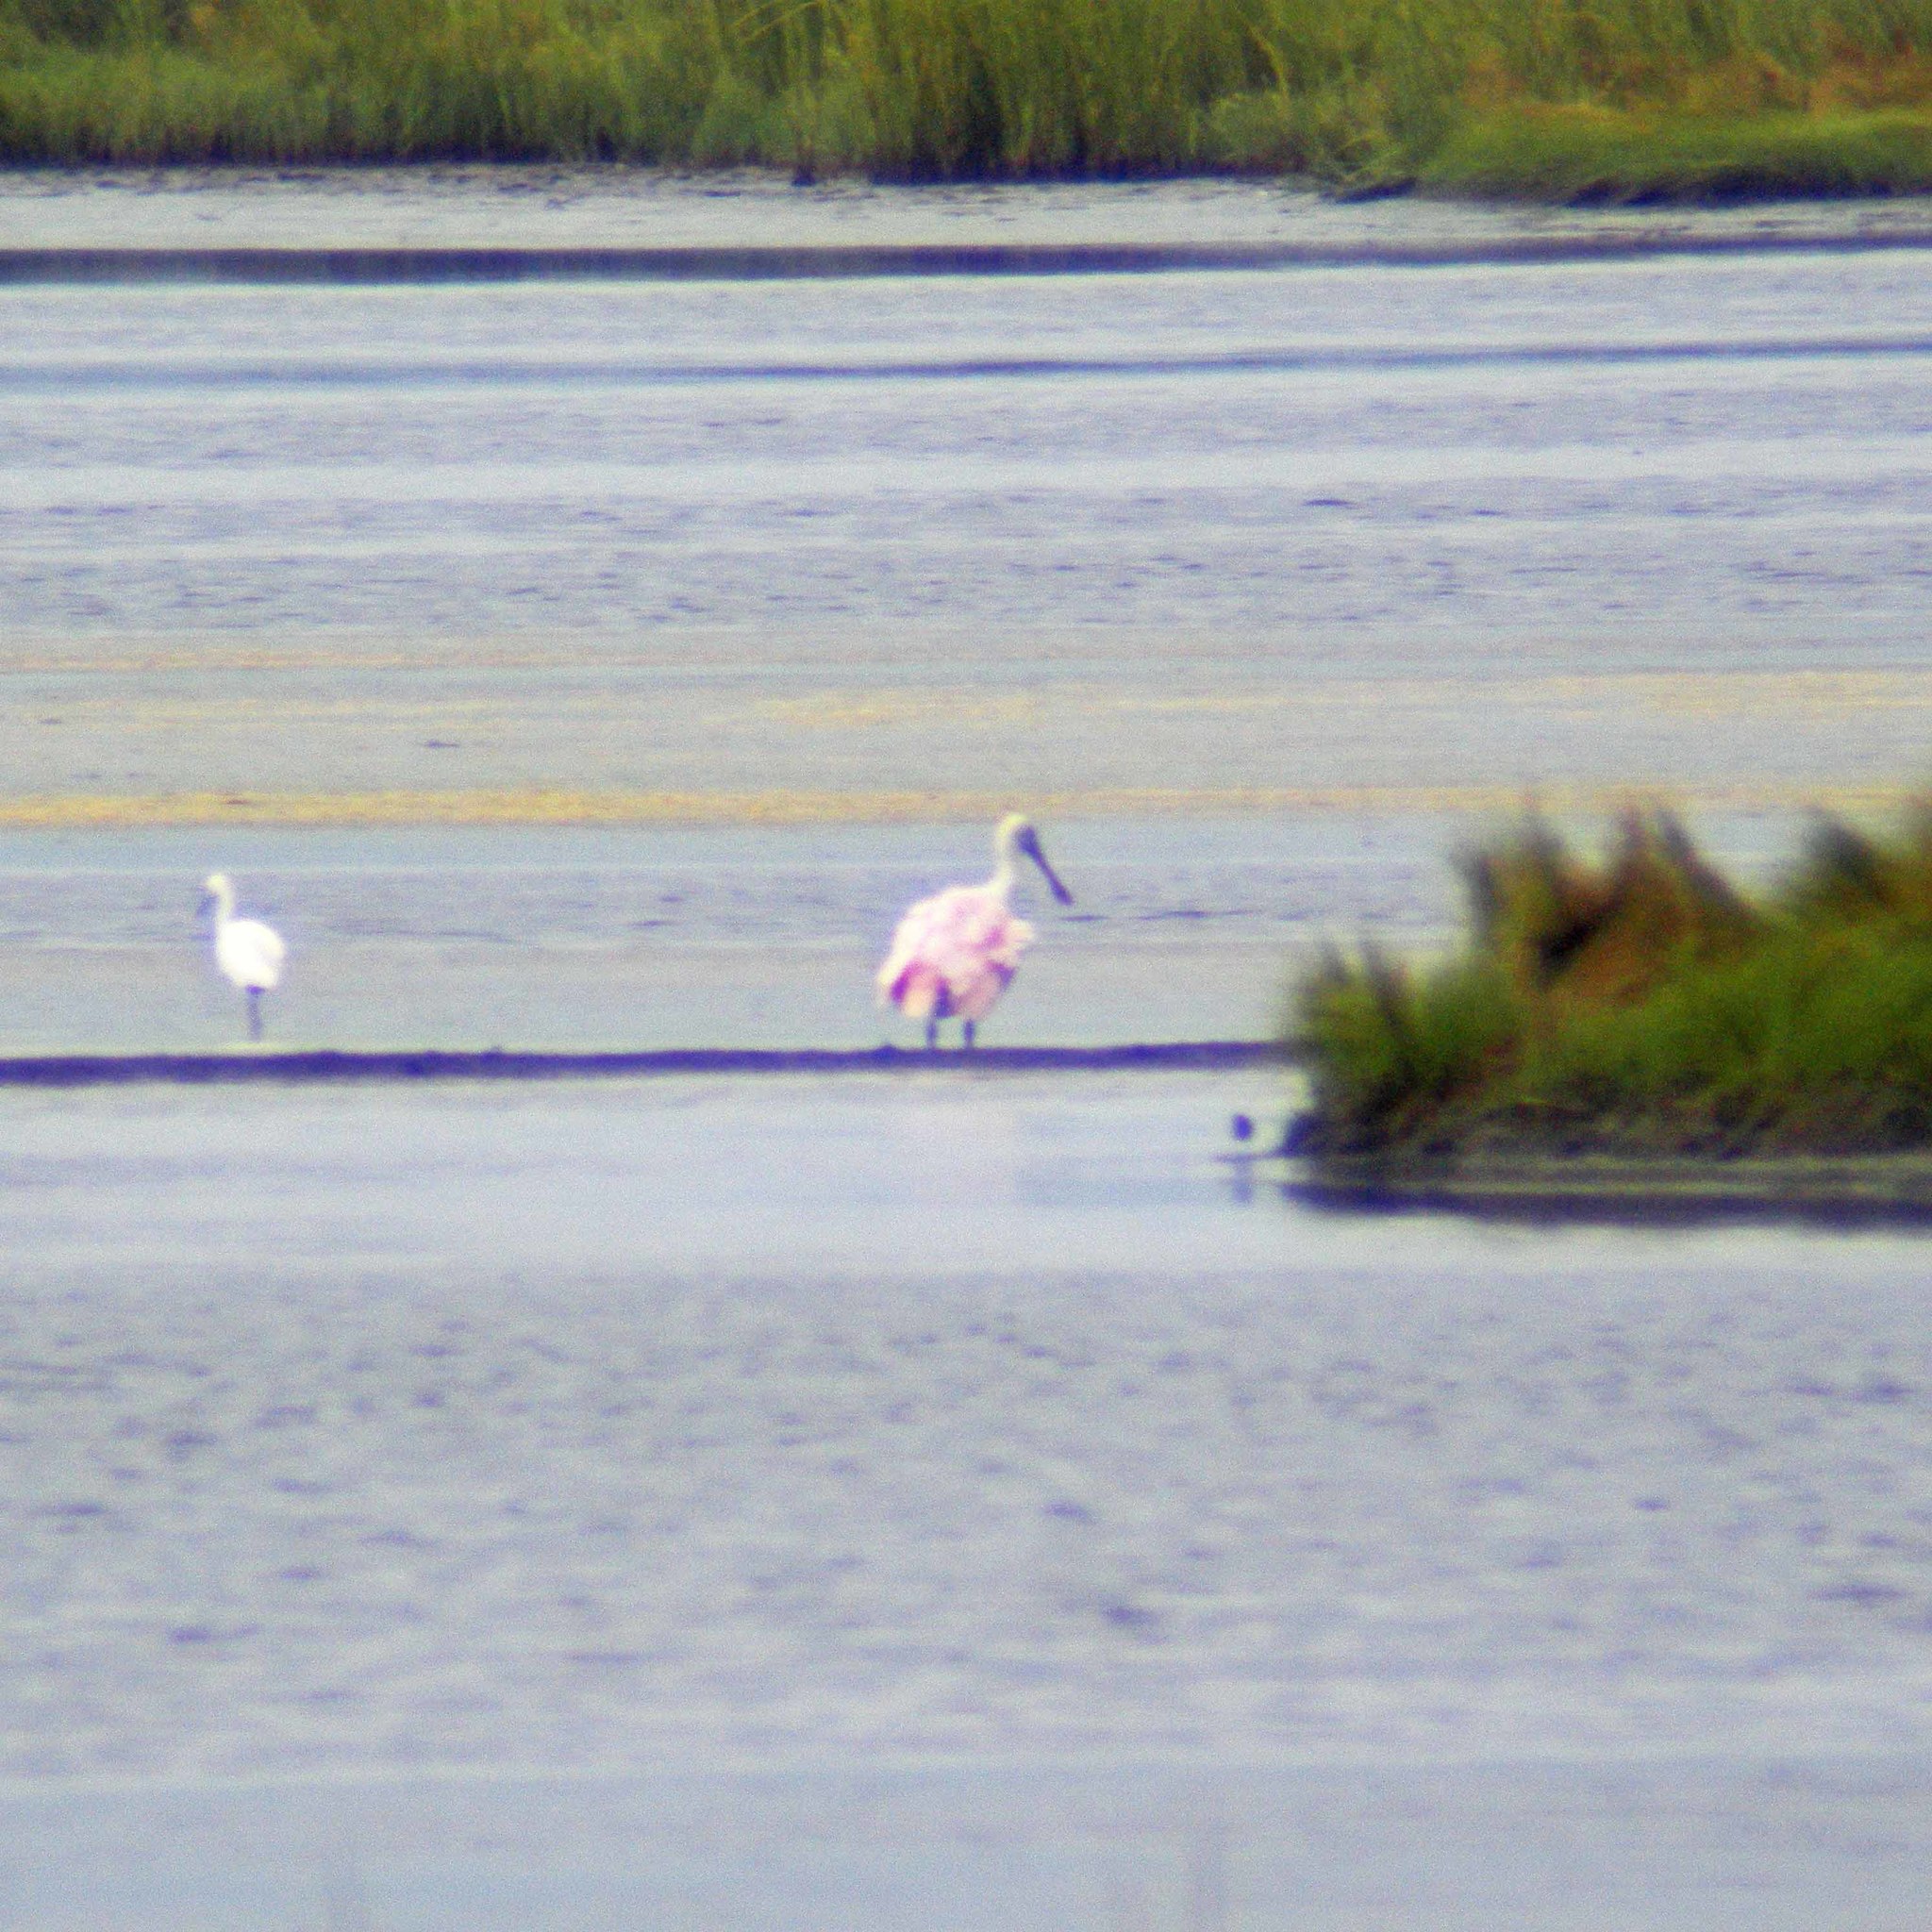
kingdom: Animalia
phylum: Chordata
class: Aves
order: Pelecaniformes
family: Threskiornithidae
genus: Platalea
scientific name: Platalea ajaja
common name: Roseate spoonbill
